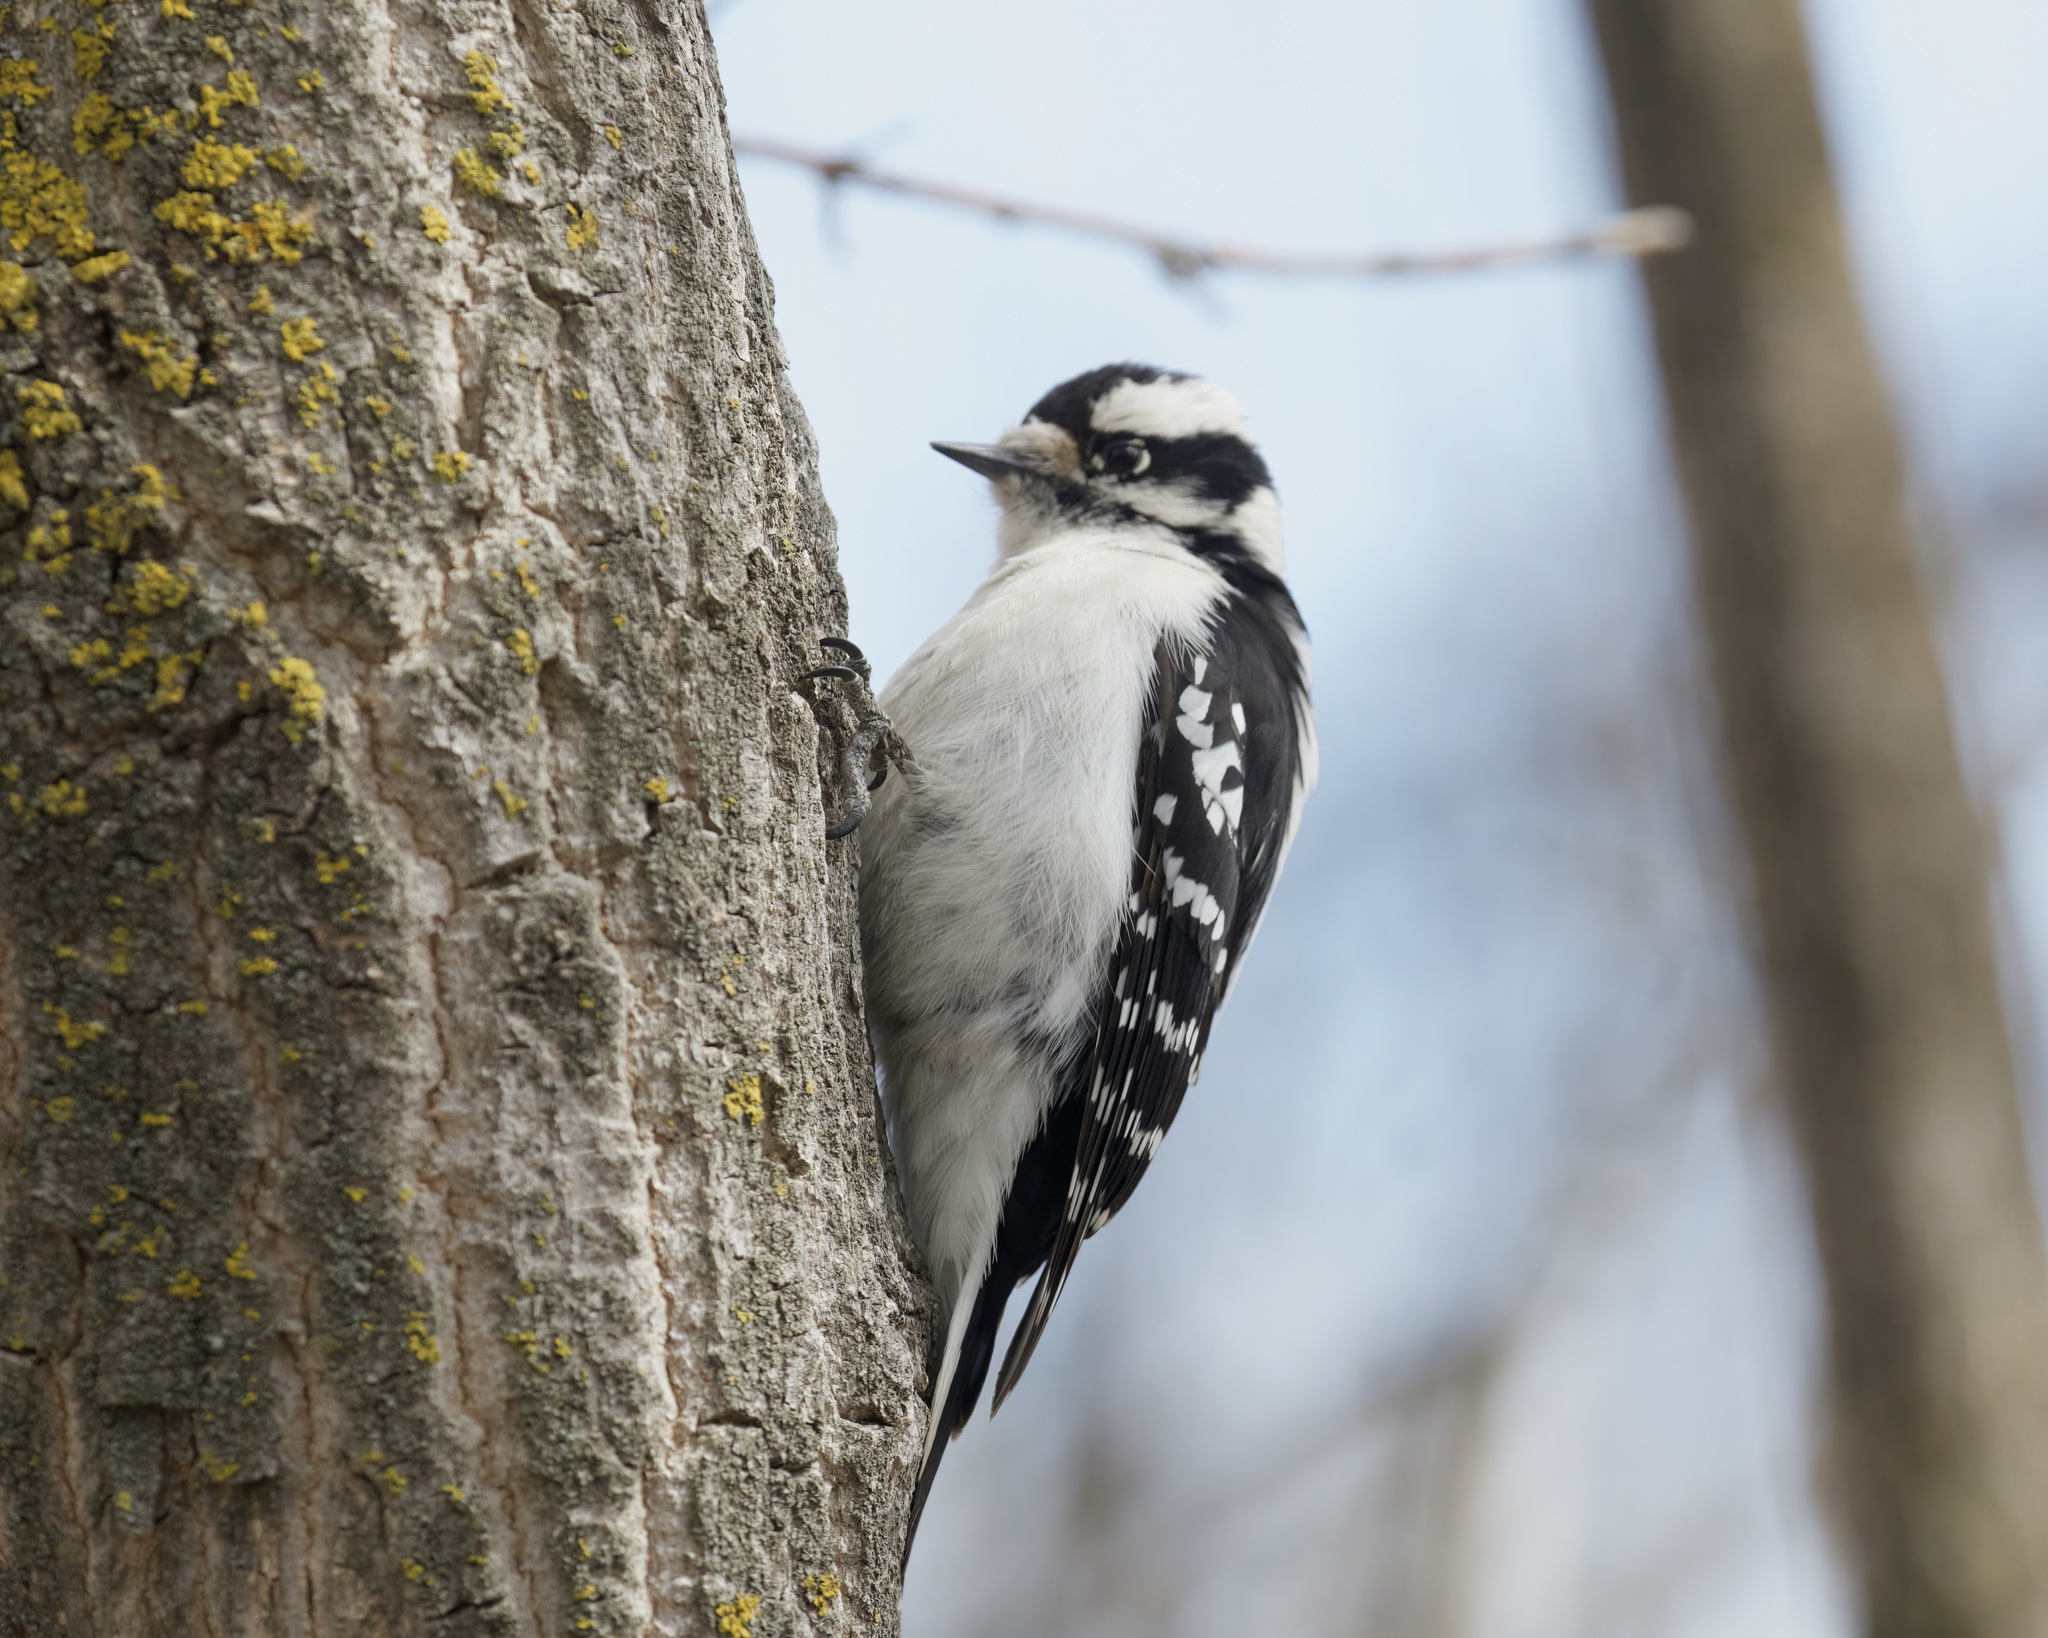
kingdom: Animalia
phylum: Chordata
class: Aves
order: Piciformes
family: Picidae
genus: Dryobates
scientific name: Dryobates pubescens
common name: Downy woodpecker
